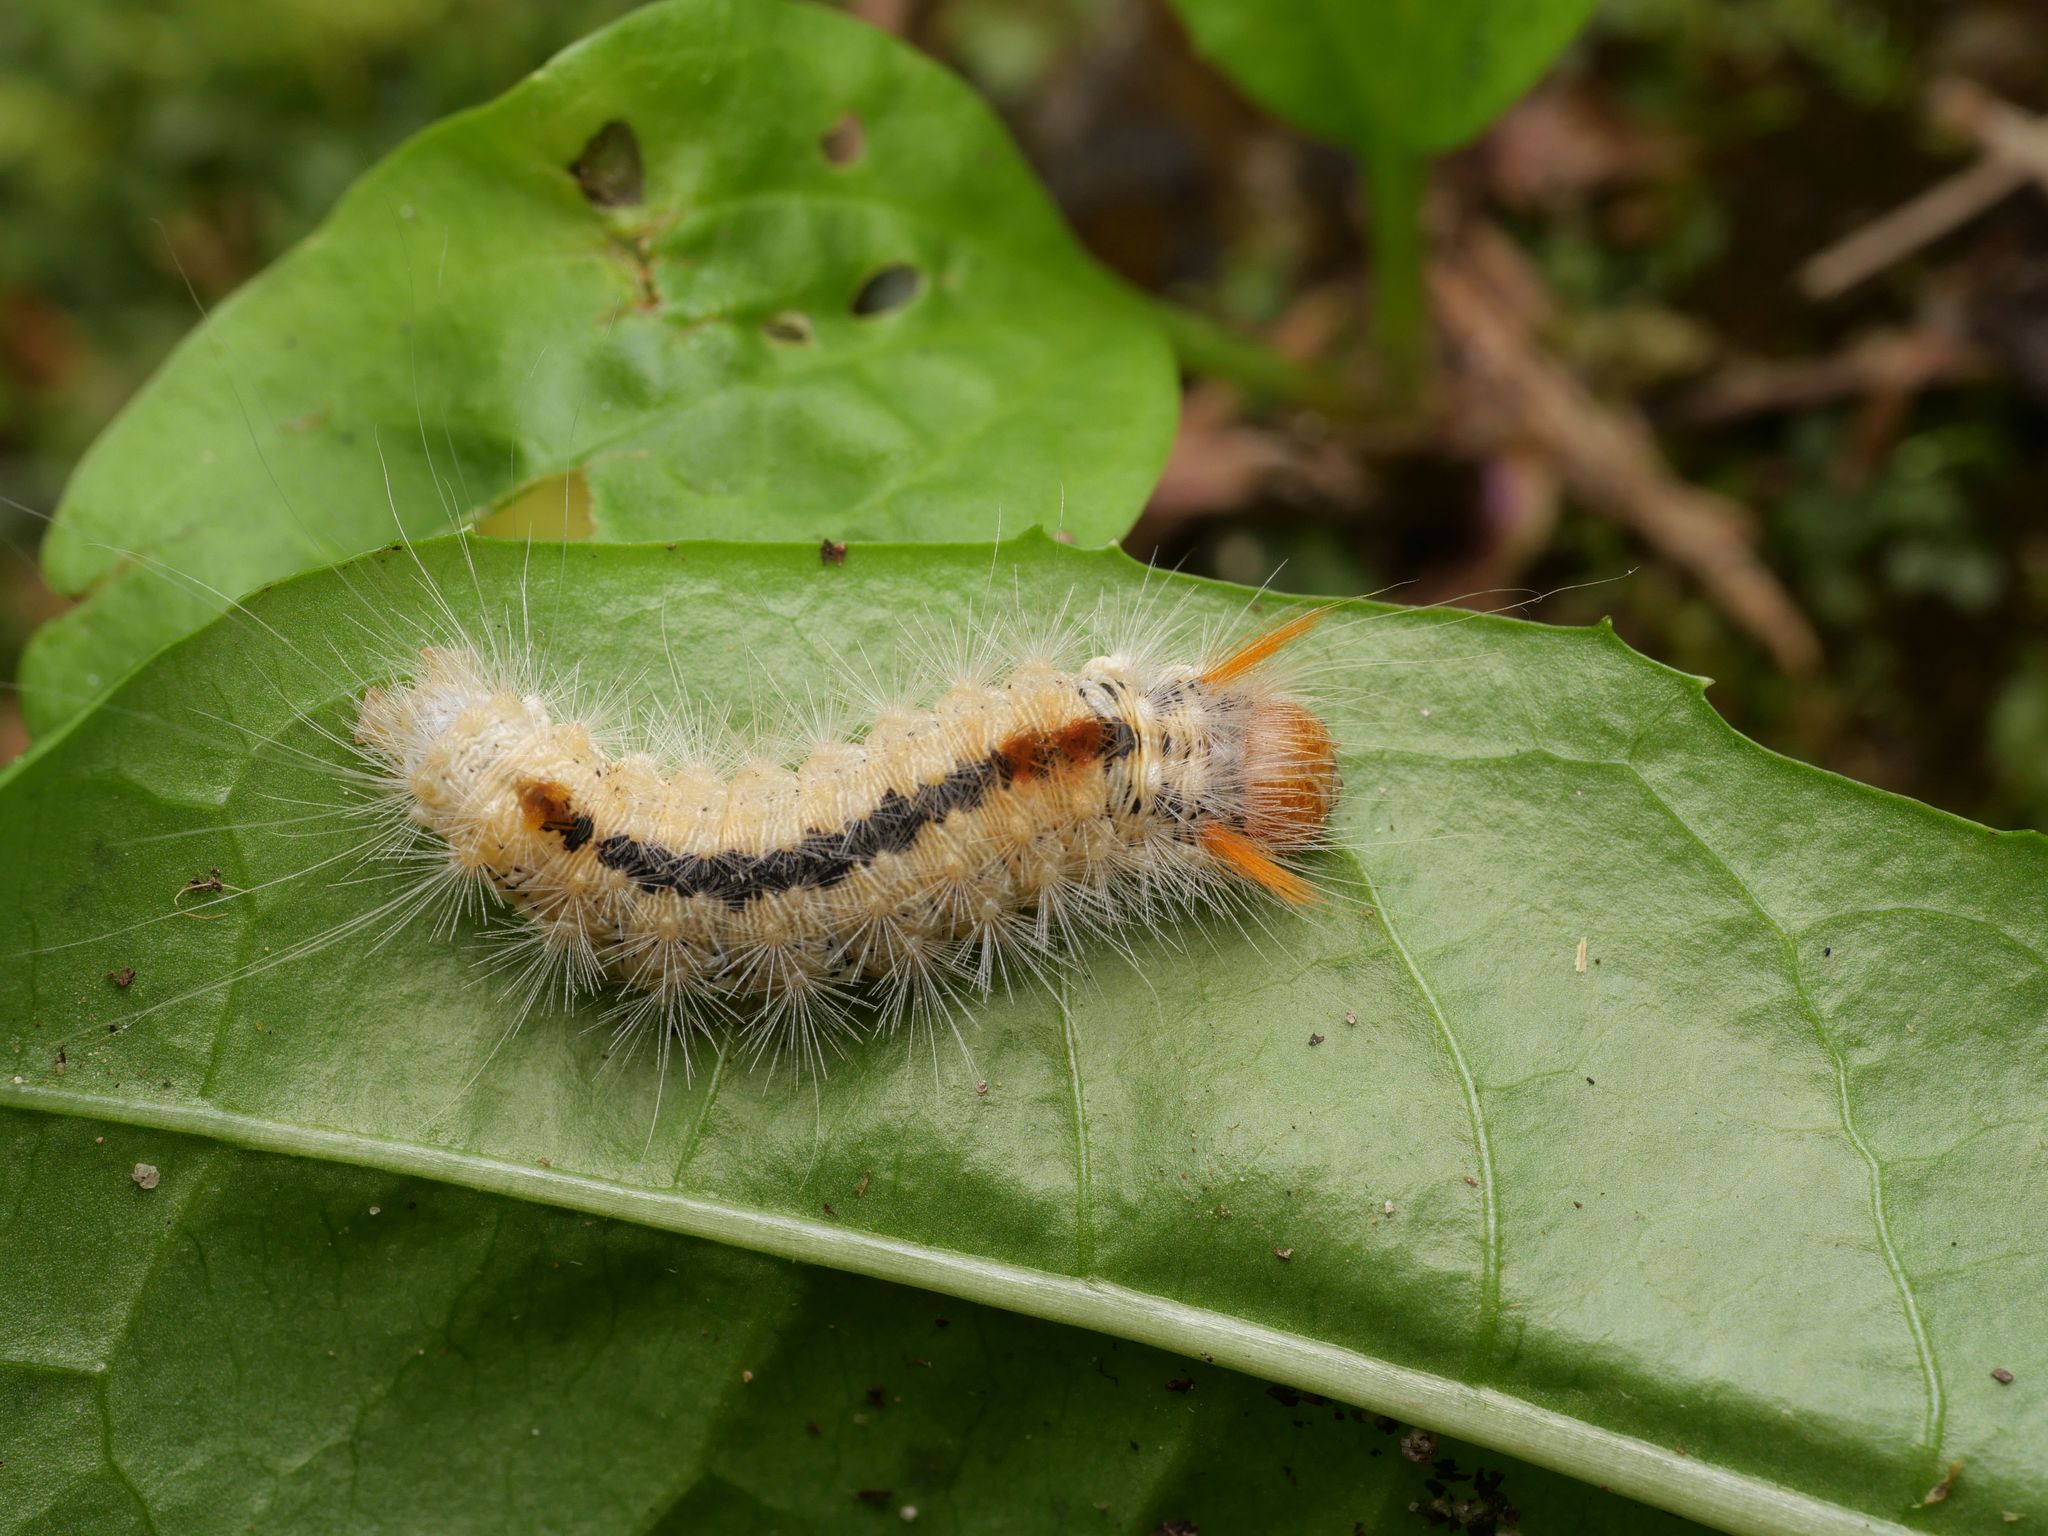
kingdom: Animalia
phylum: Arthropoda
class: Insecta
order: Lepidoptera
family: Noctuidae
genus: Colocasia
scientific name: Colocasia coryli
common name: Nut-tree tussock
